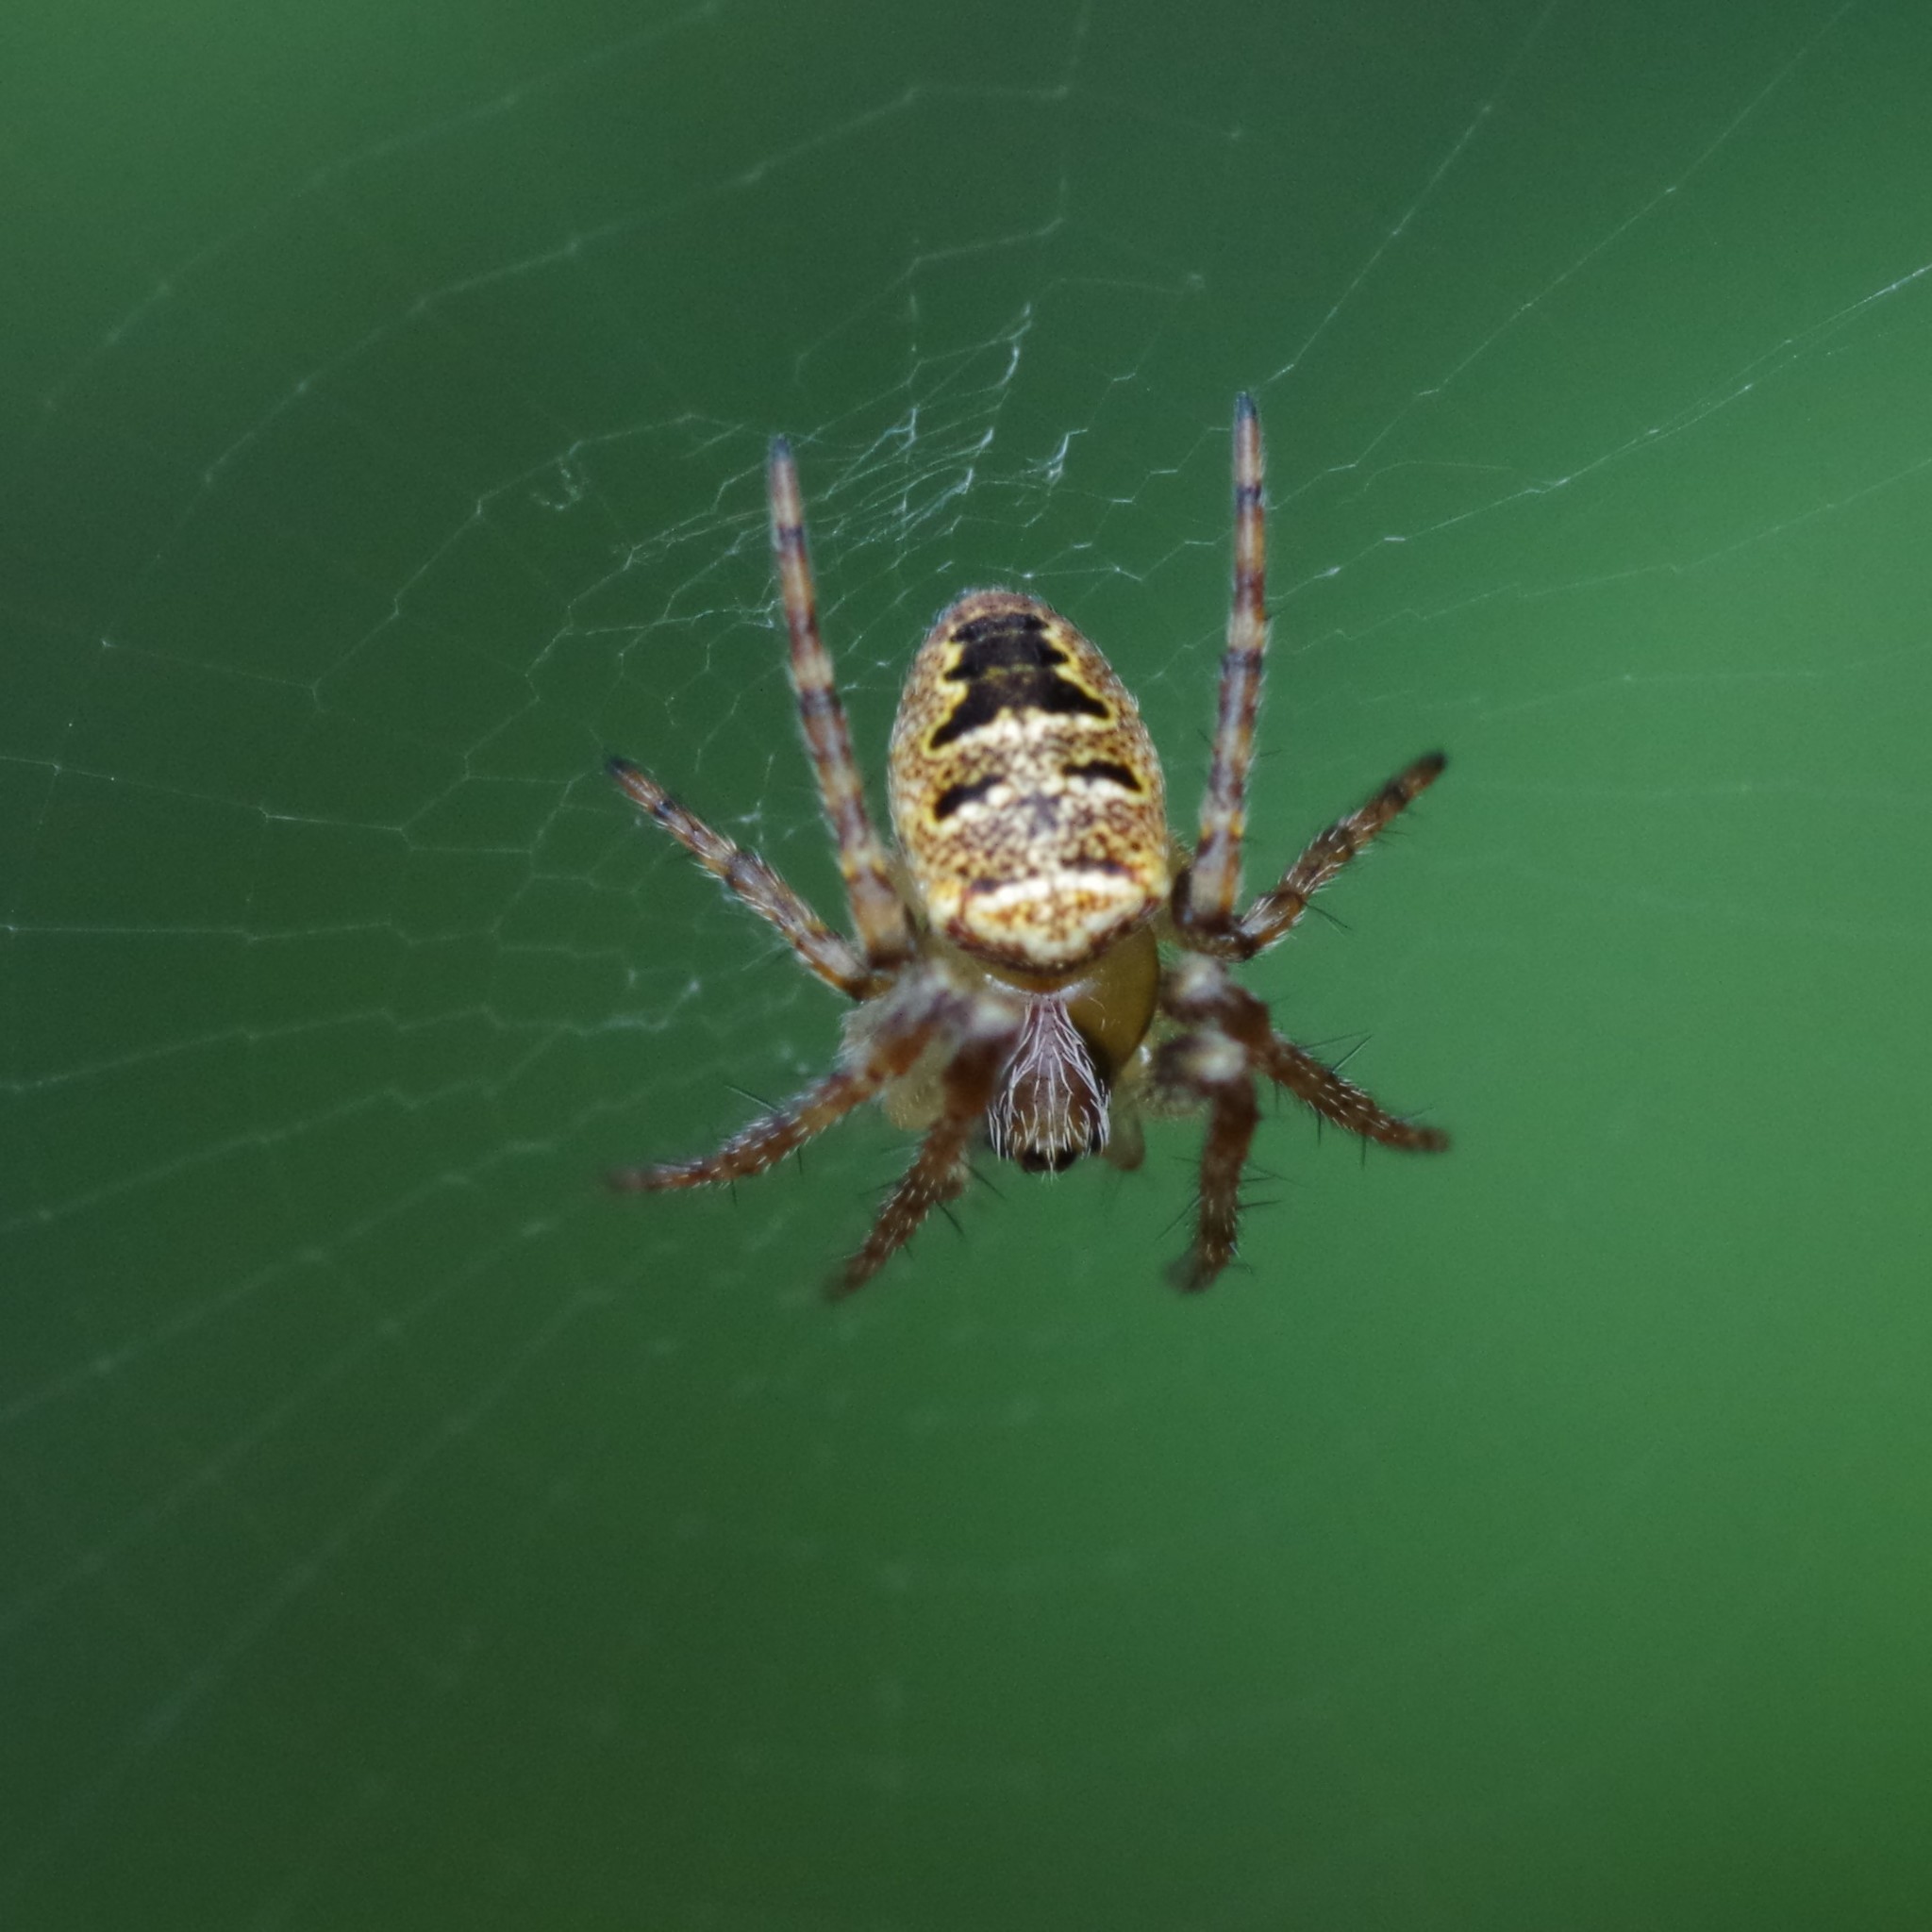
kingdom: Animalia
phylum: Arthropoda
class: Arachnida
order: Araneae
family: Araneidae
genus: Zilla
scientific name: Zilla diodia
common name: Zilla diodia
